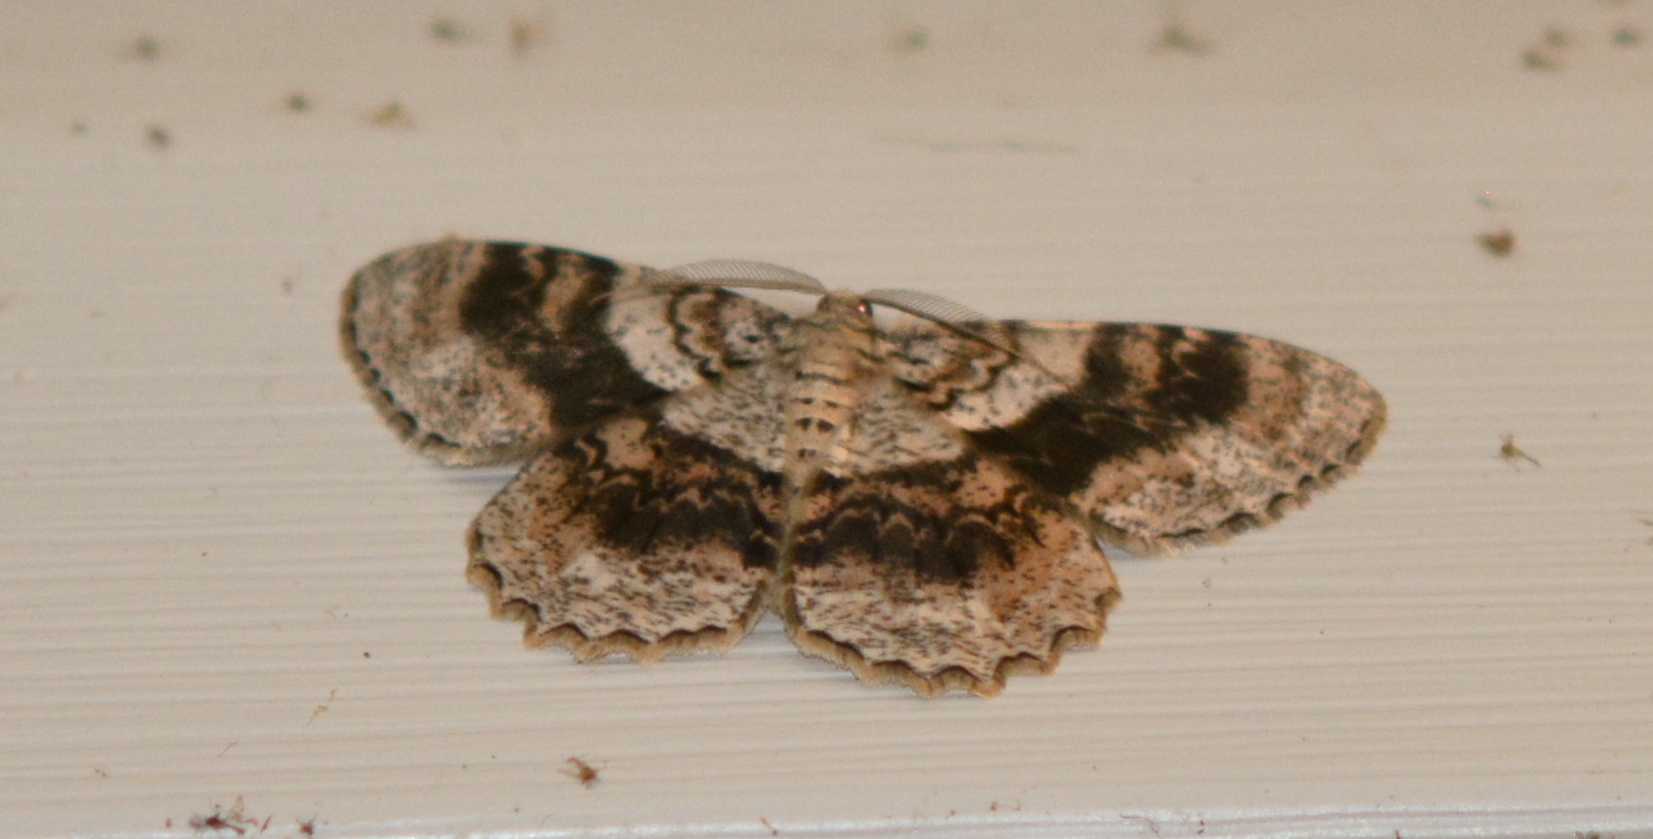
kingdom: Animalia
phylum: Arthropoda
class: Insecta
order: Lepidoptera
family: Geometridae
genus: Epimecis
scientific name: Epimecis hortaria
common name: Tulip-tree beauty
